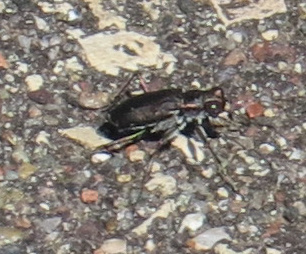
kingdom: Animalia
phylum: Arthropoda
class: Insecta
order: Coleoptera
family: Carabidae
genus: Cicindela
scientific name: Cicindela punctulata
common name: Punctured tiger beetle
